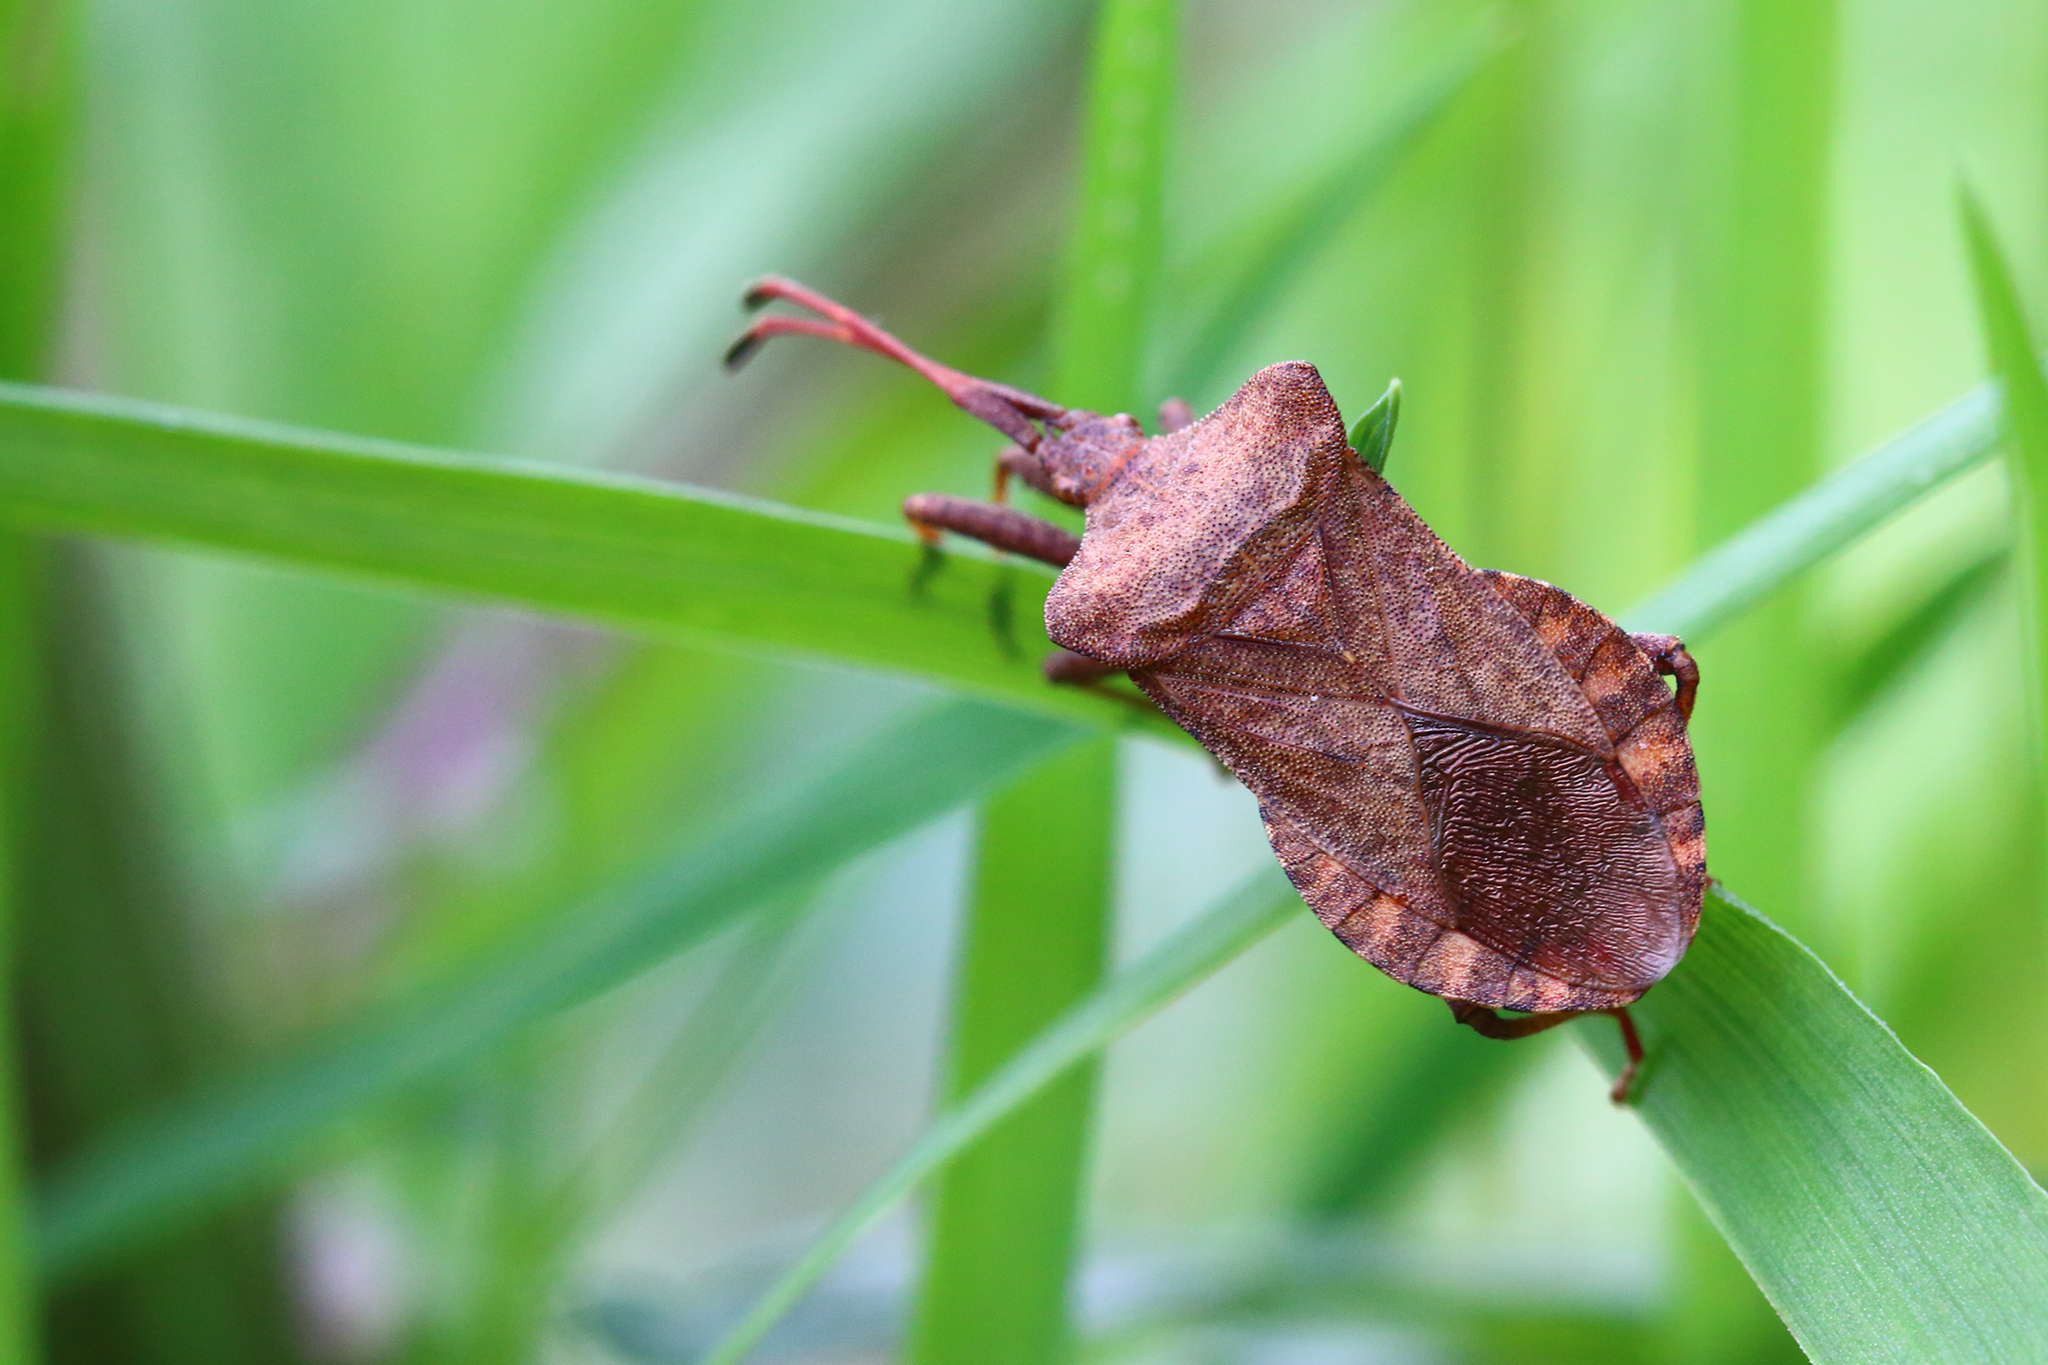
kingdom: Animalia
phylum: Arthropoda
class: Insecta
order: Hemiptera
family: Coreidae
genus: Coreus
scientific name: Coreus marginatus
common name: Dock bug
